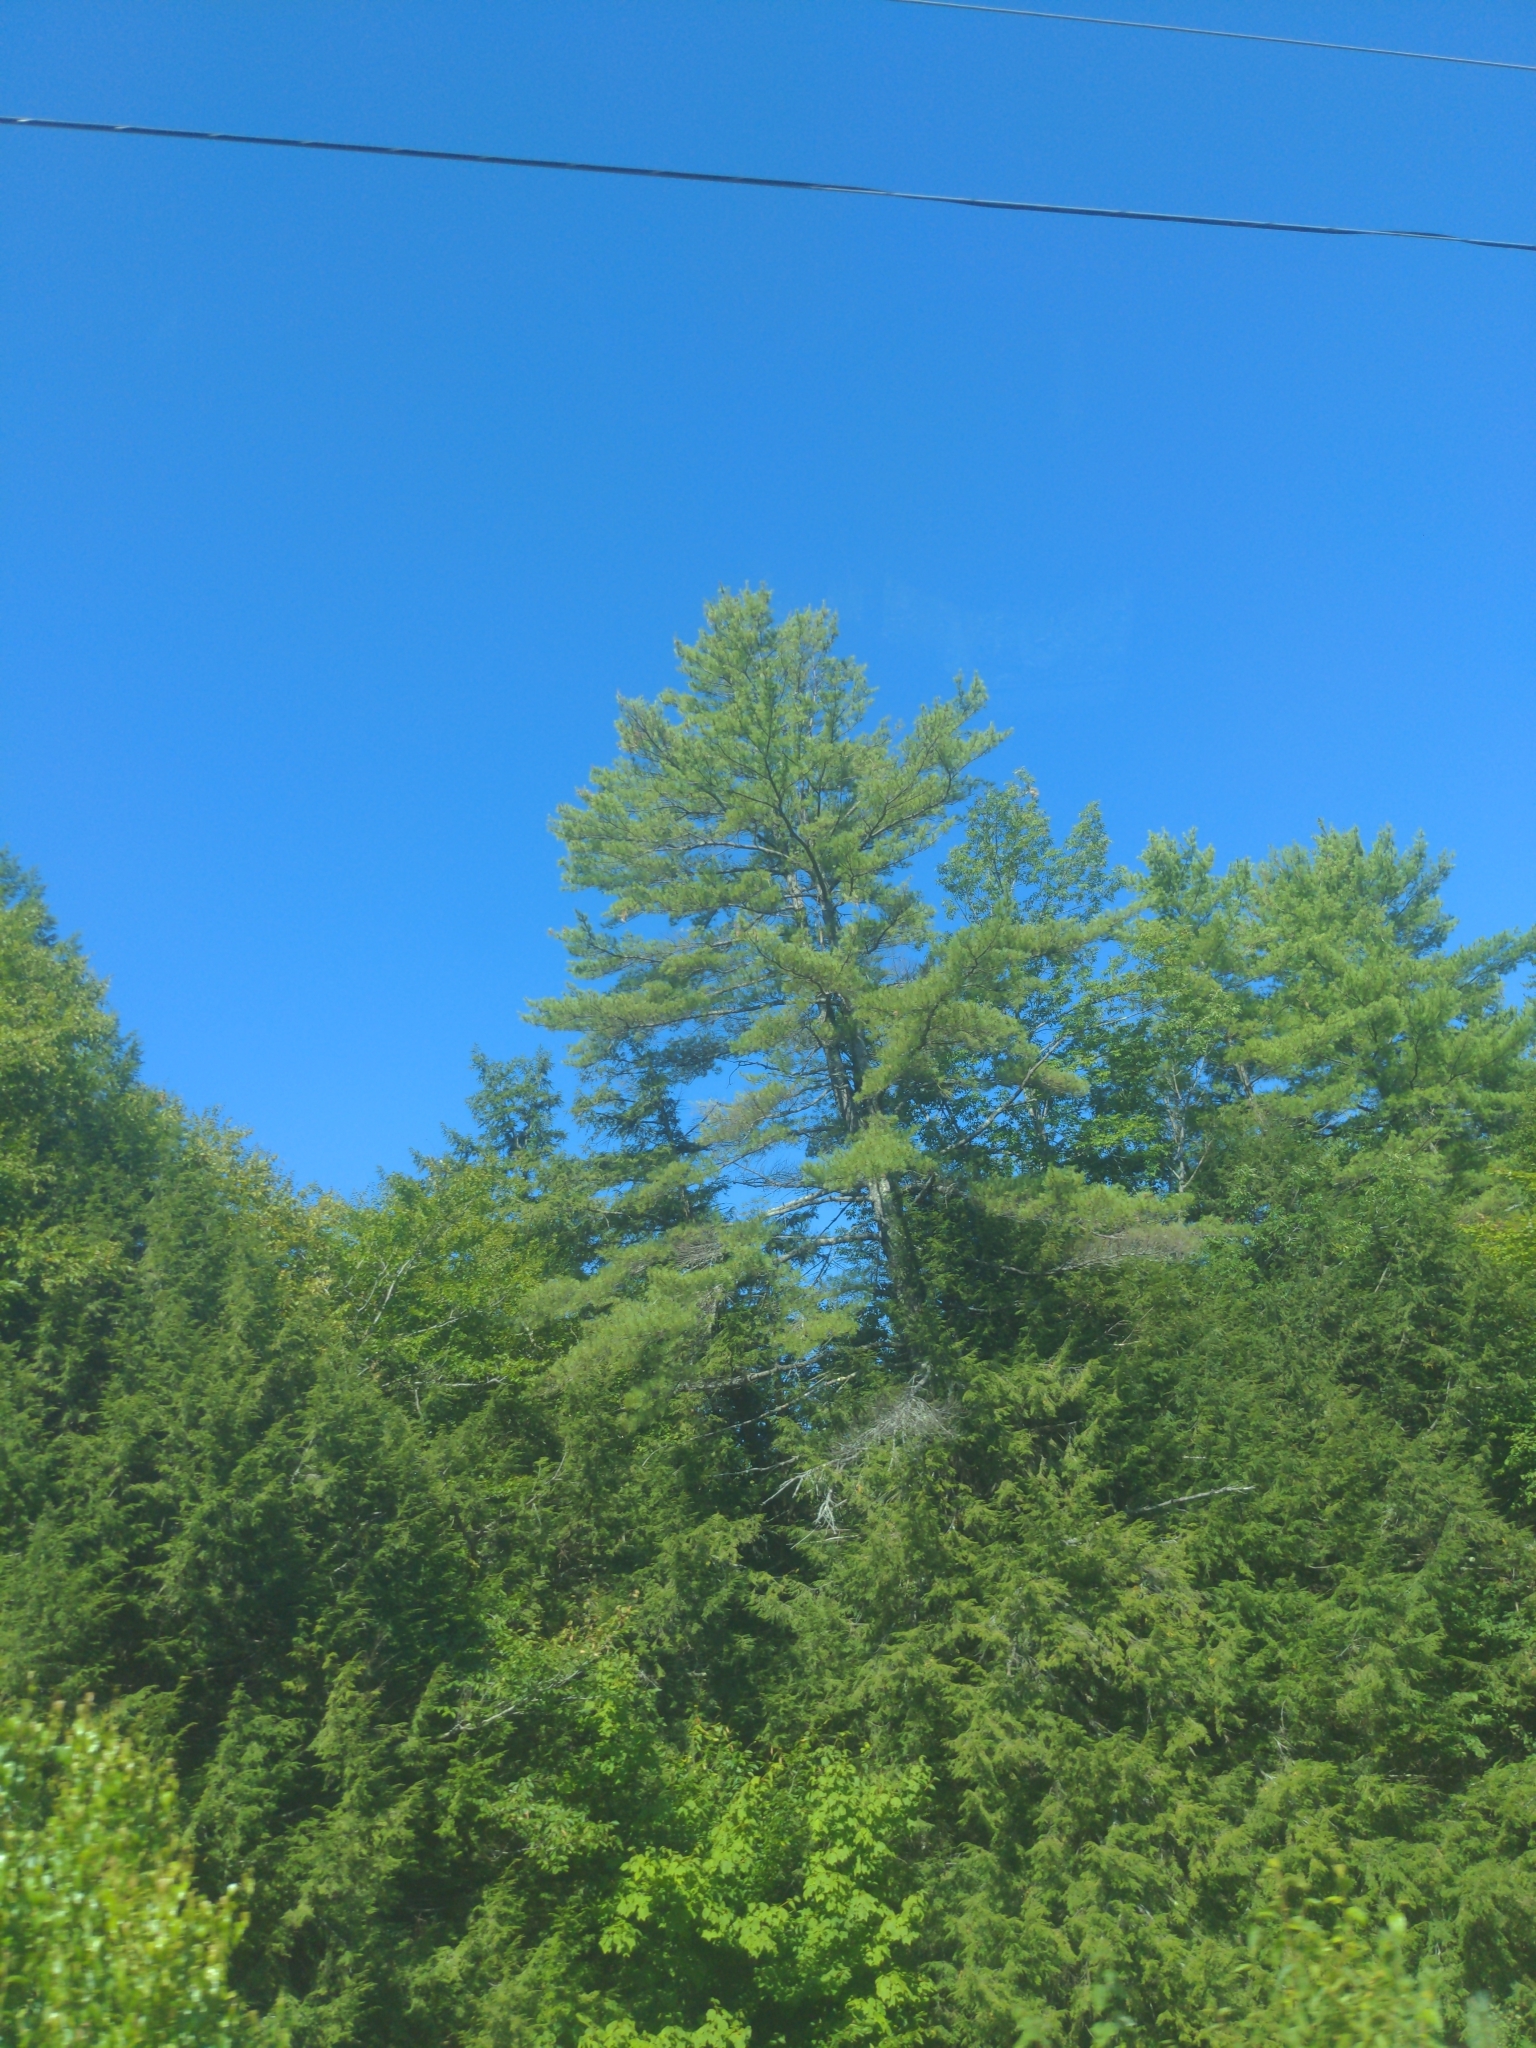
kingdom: Plantae
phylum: Tracheophyta
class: Pinopsida
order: Pinales
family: Pinaceae
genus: Pinus
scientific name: Pinus strobus
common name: Weymouth pine
